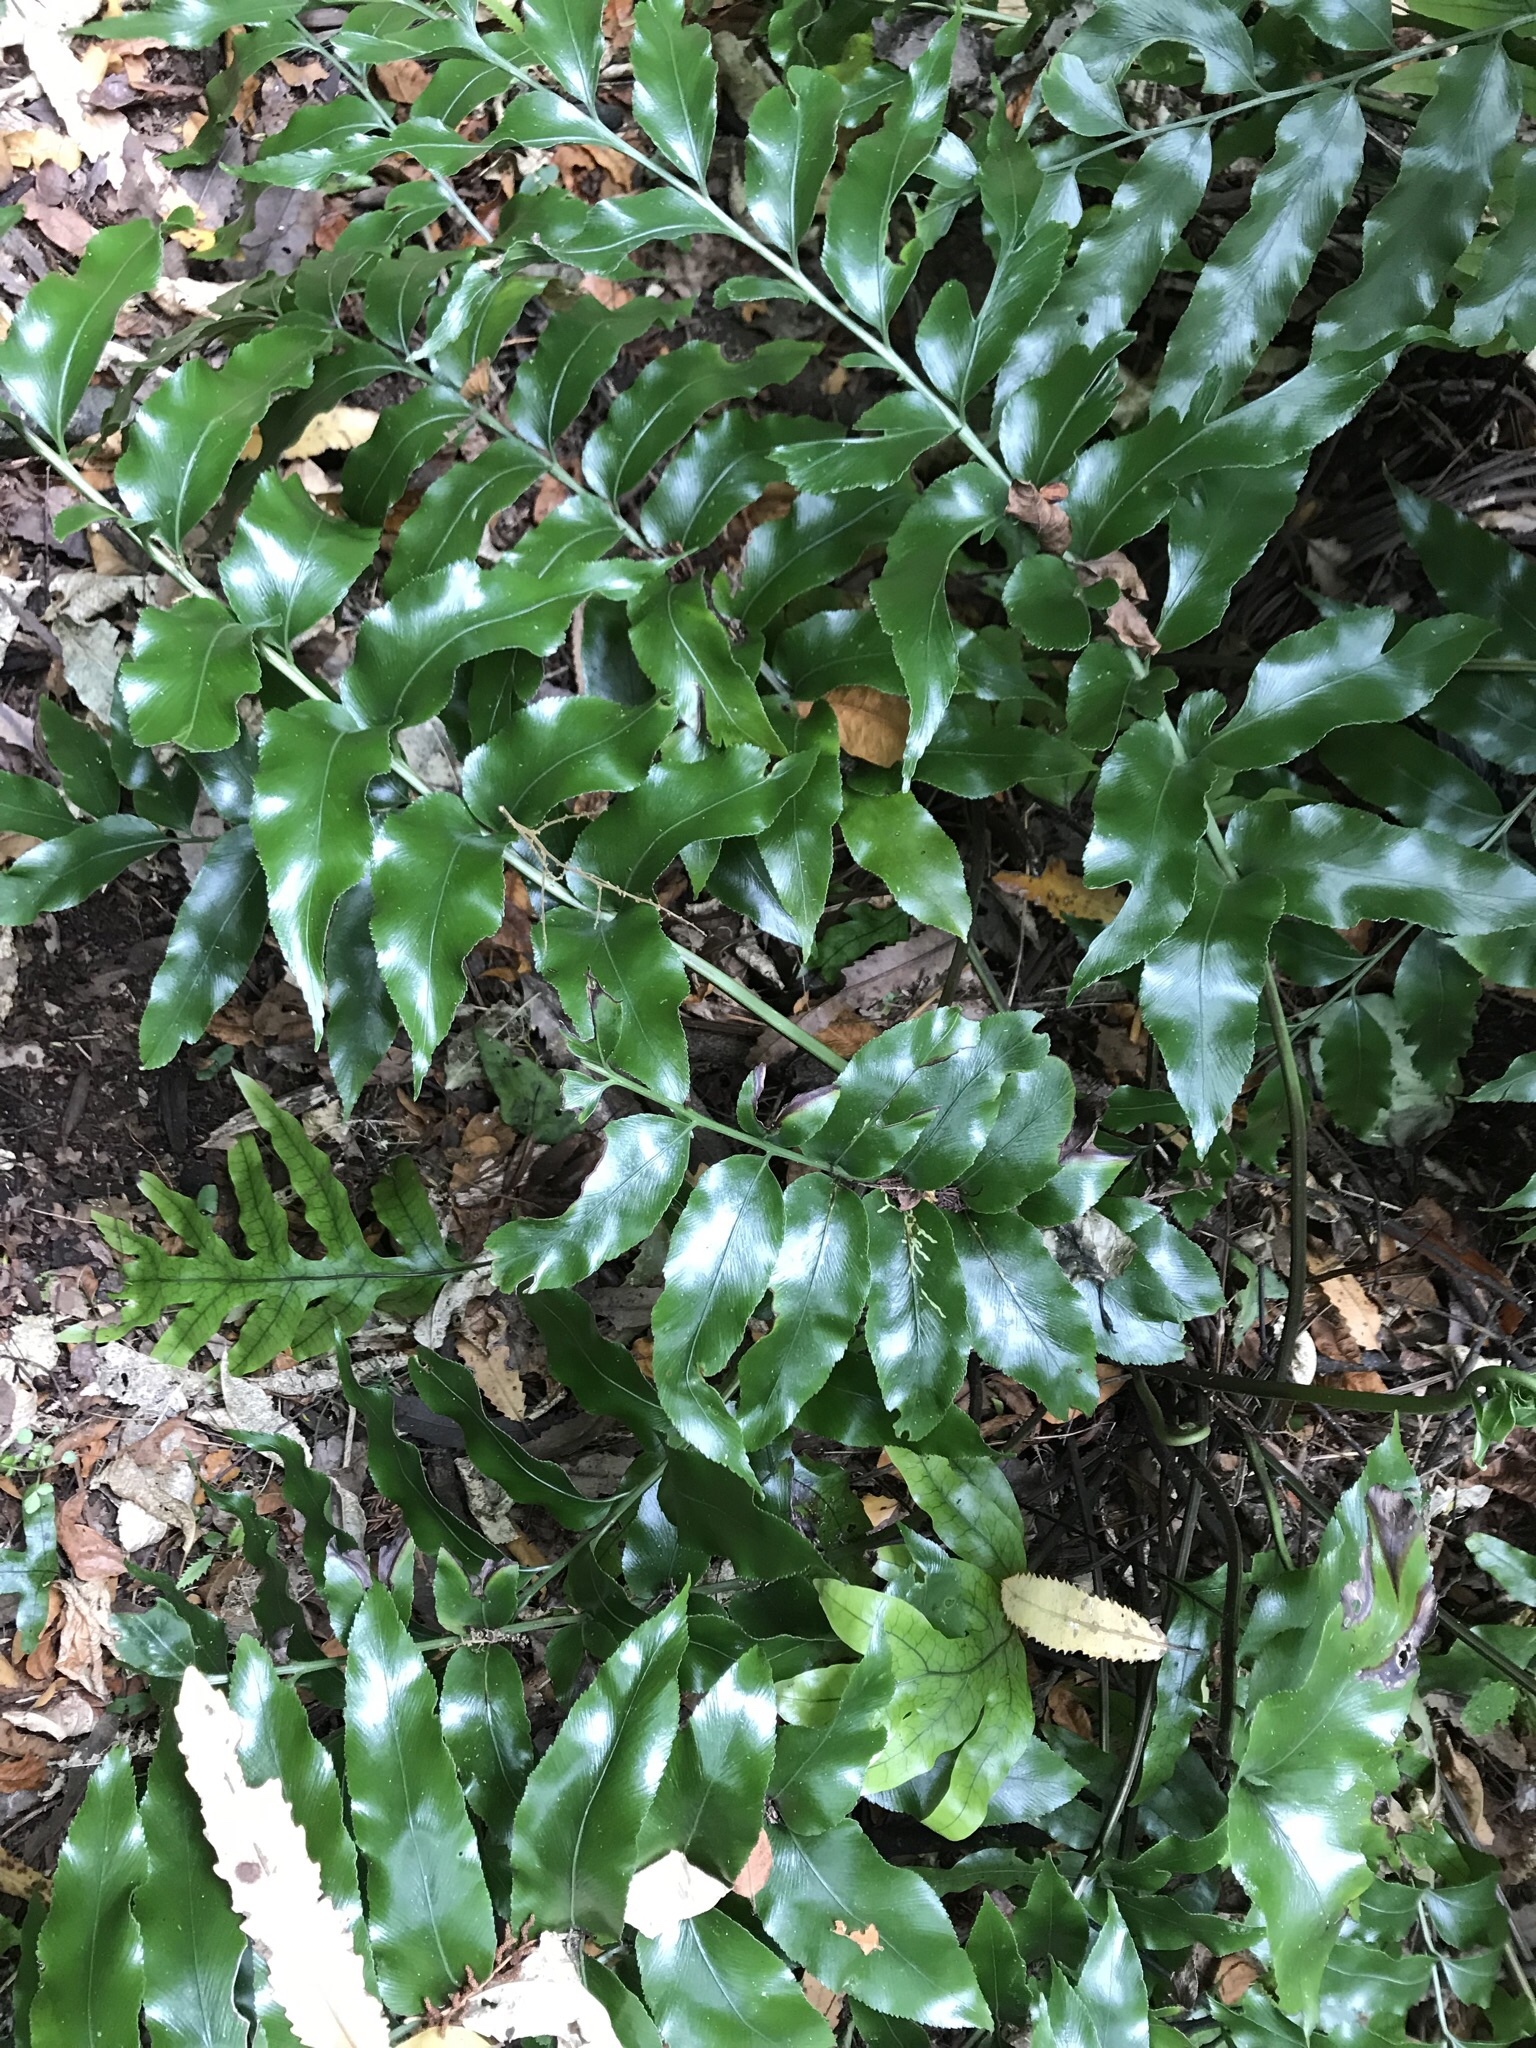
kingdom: Plantae
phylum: Tracheophyta
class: Polypodiopsida
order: Polypodiales
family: Aspleniaceae
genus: Asplenium
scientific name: Asplenium oblongifolium
